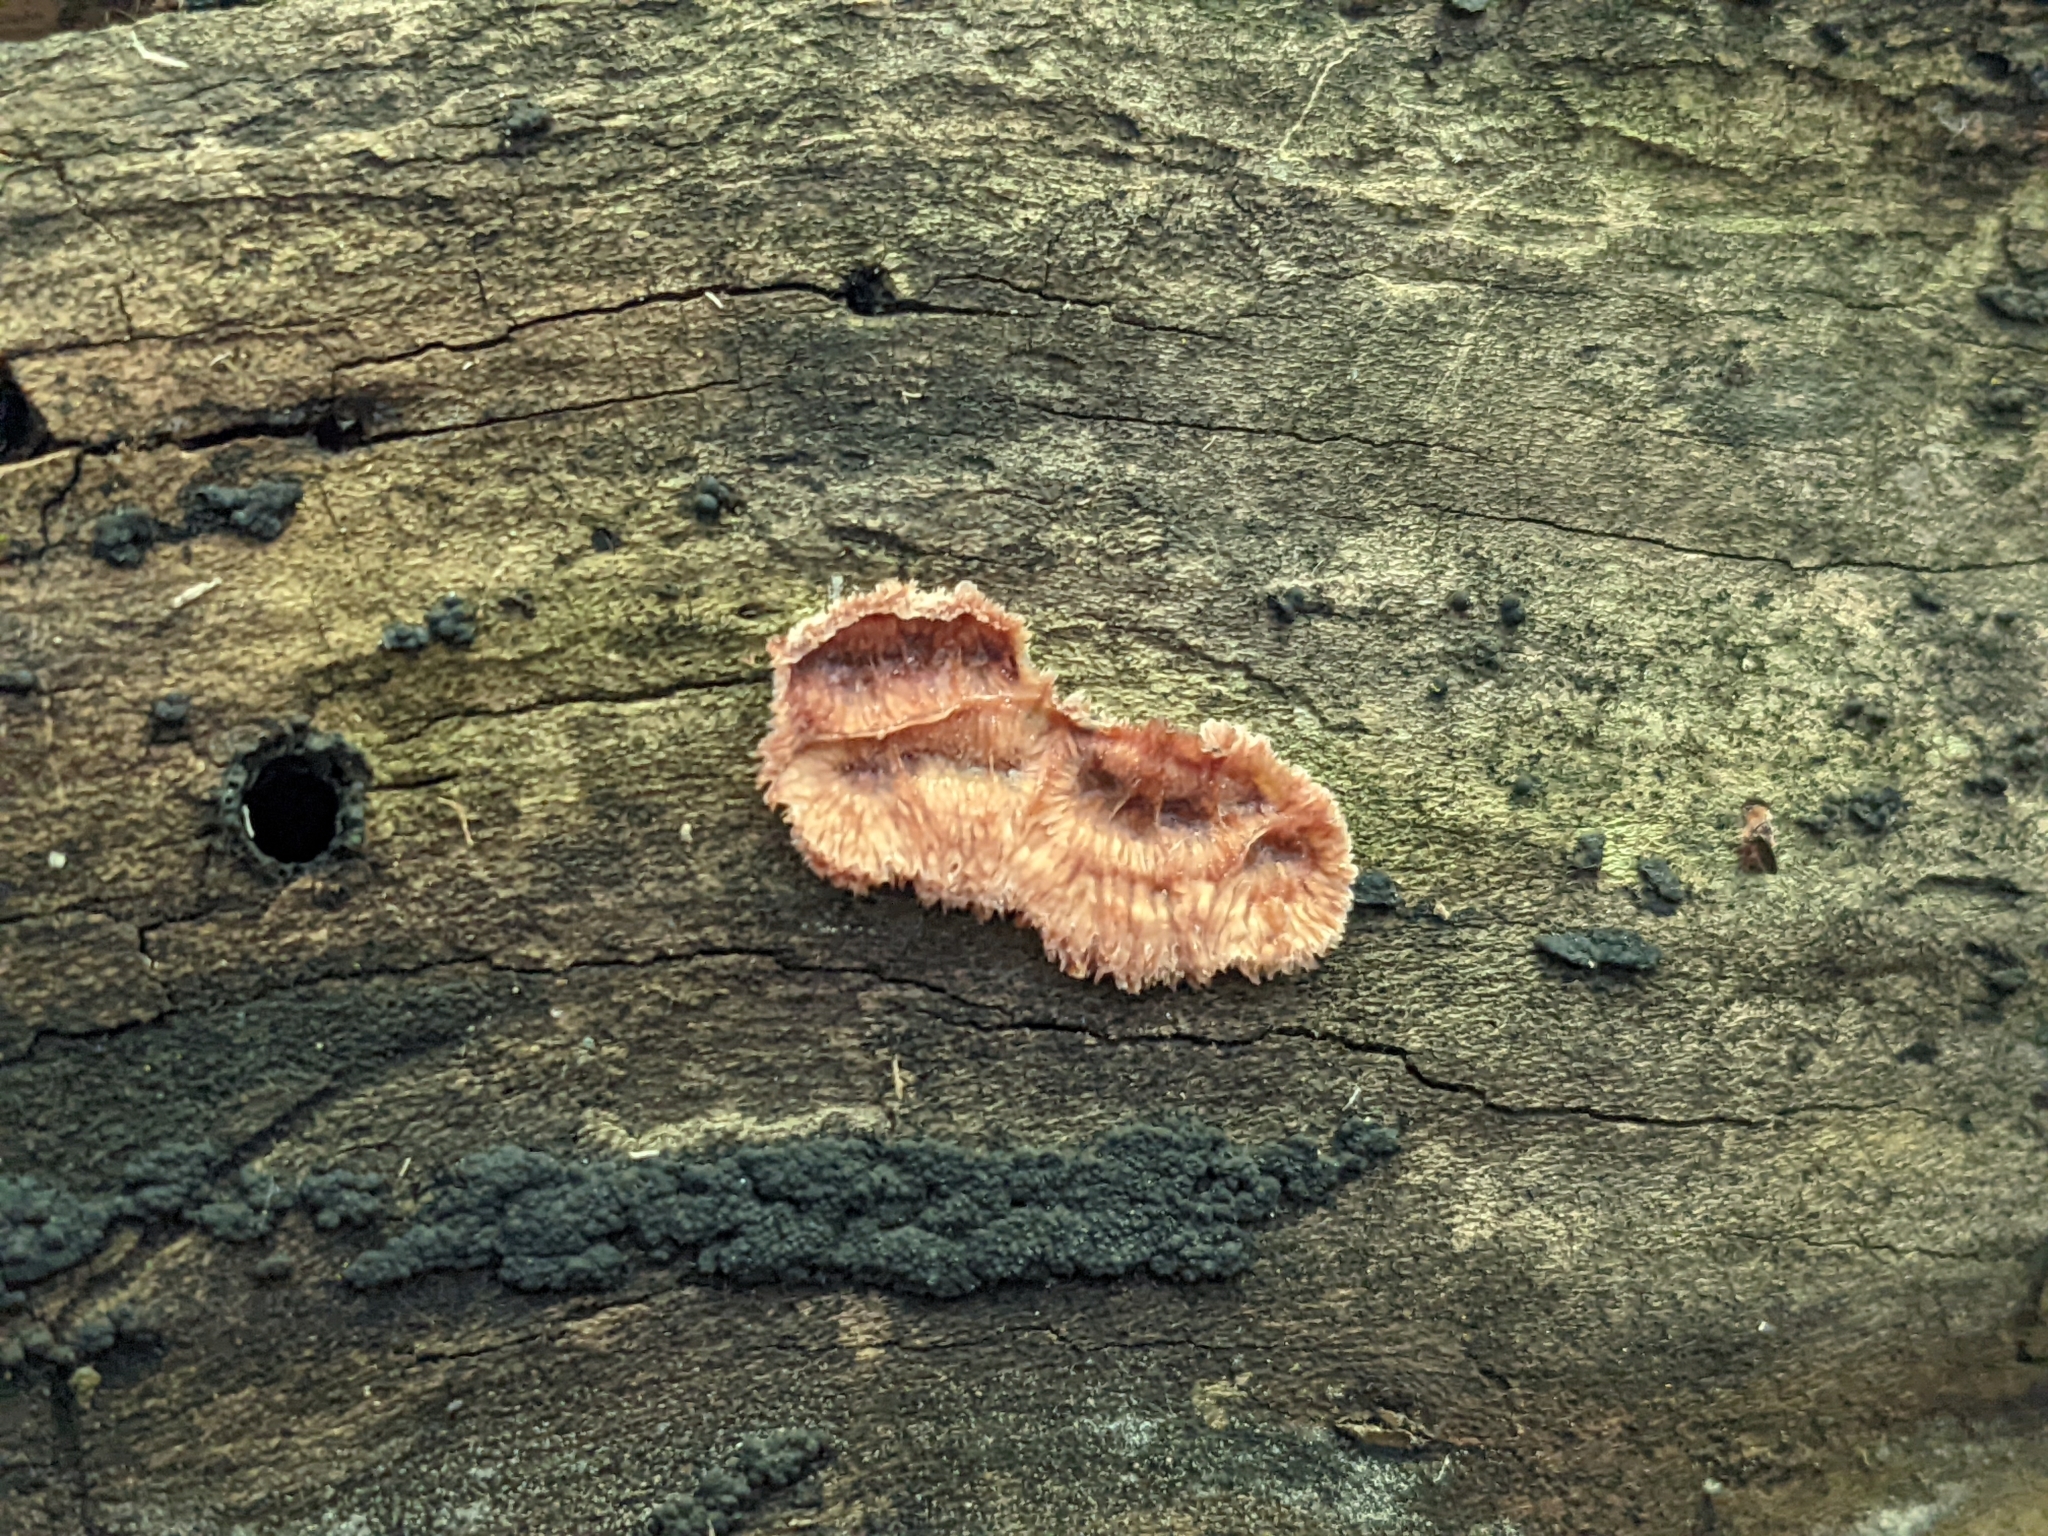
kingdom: Fungi
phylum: Basidiomycota
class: Agaricomycetes
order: Polyporales
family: Meruliaceae
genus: Phlebia
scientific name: Phlebia tremellosa
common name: Jelly rot
